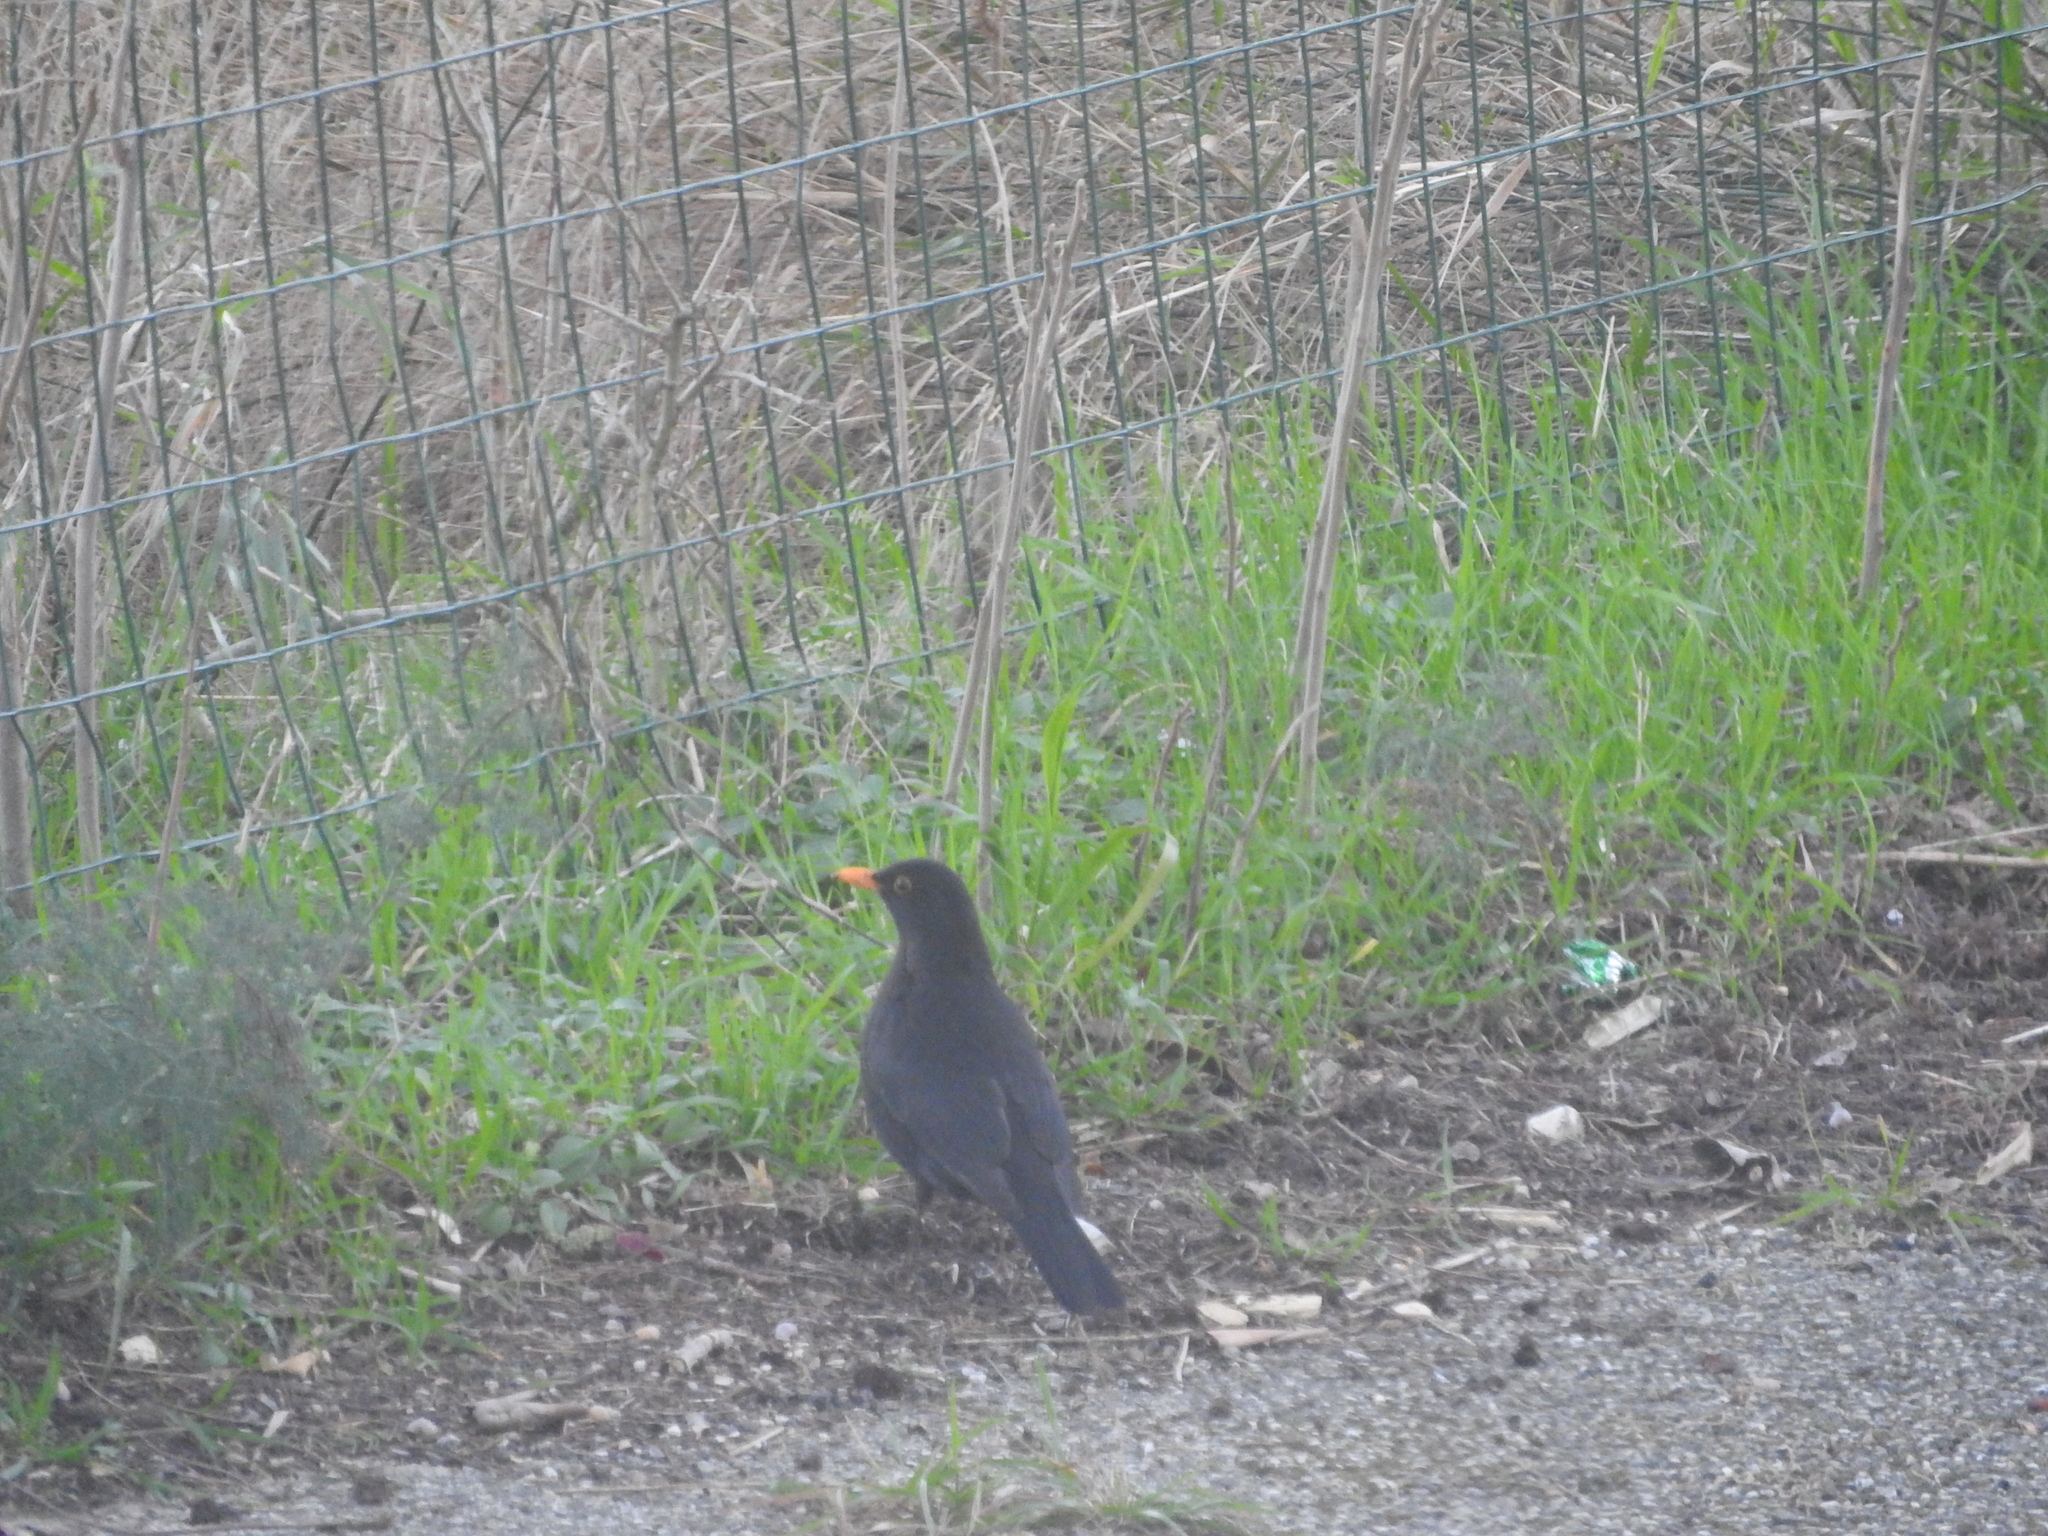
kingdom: Animalia
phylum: Chordata
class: Aves
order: Passeriformes
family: Turdidae
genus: Turdus
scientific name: Turdus merula
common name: Common blackbird
